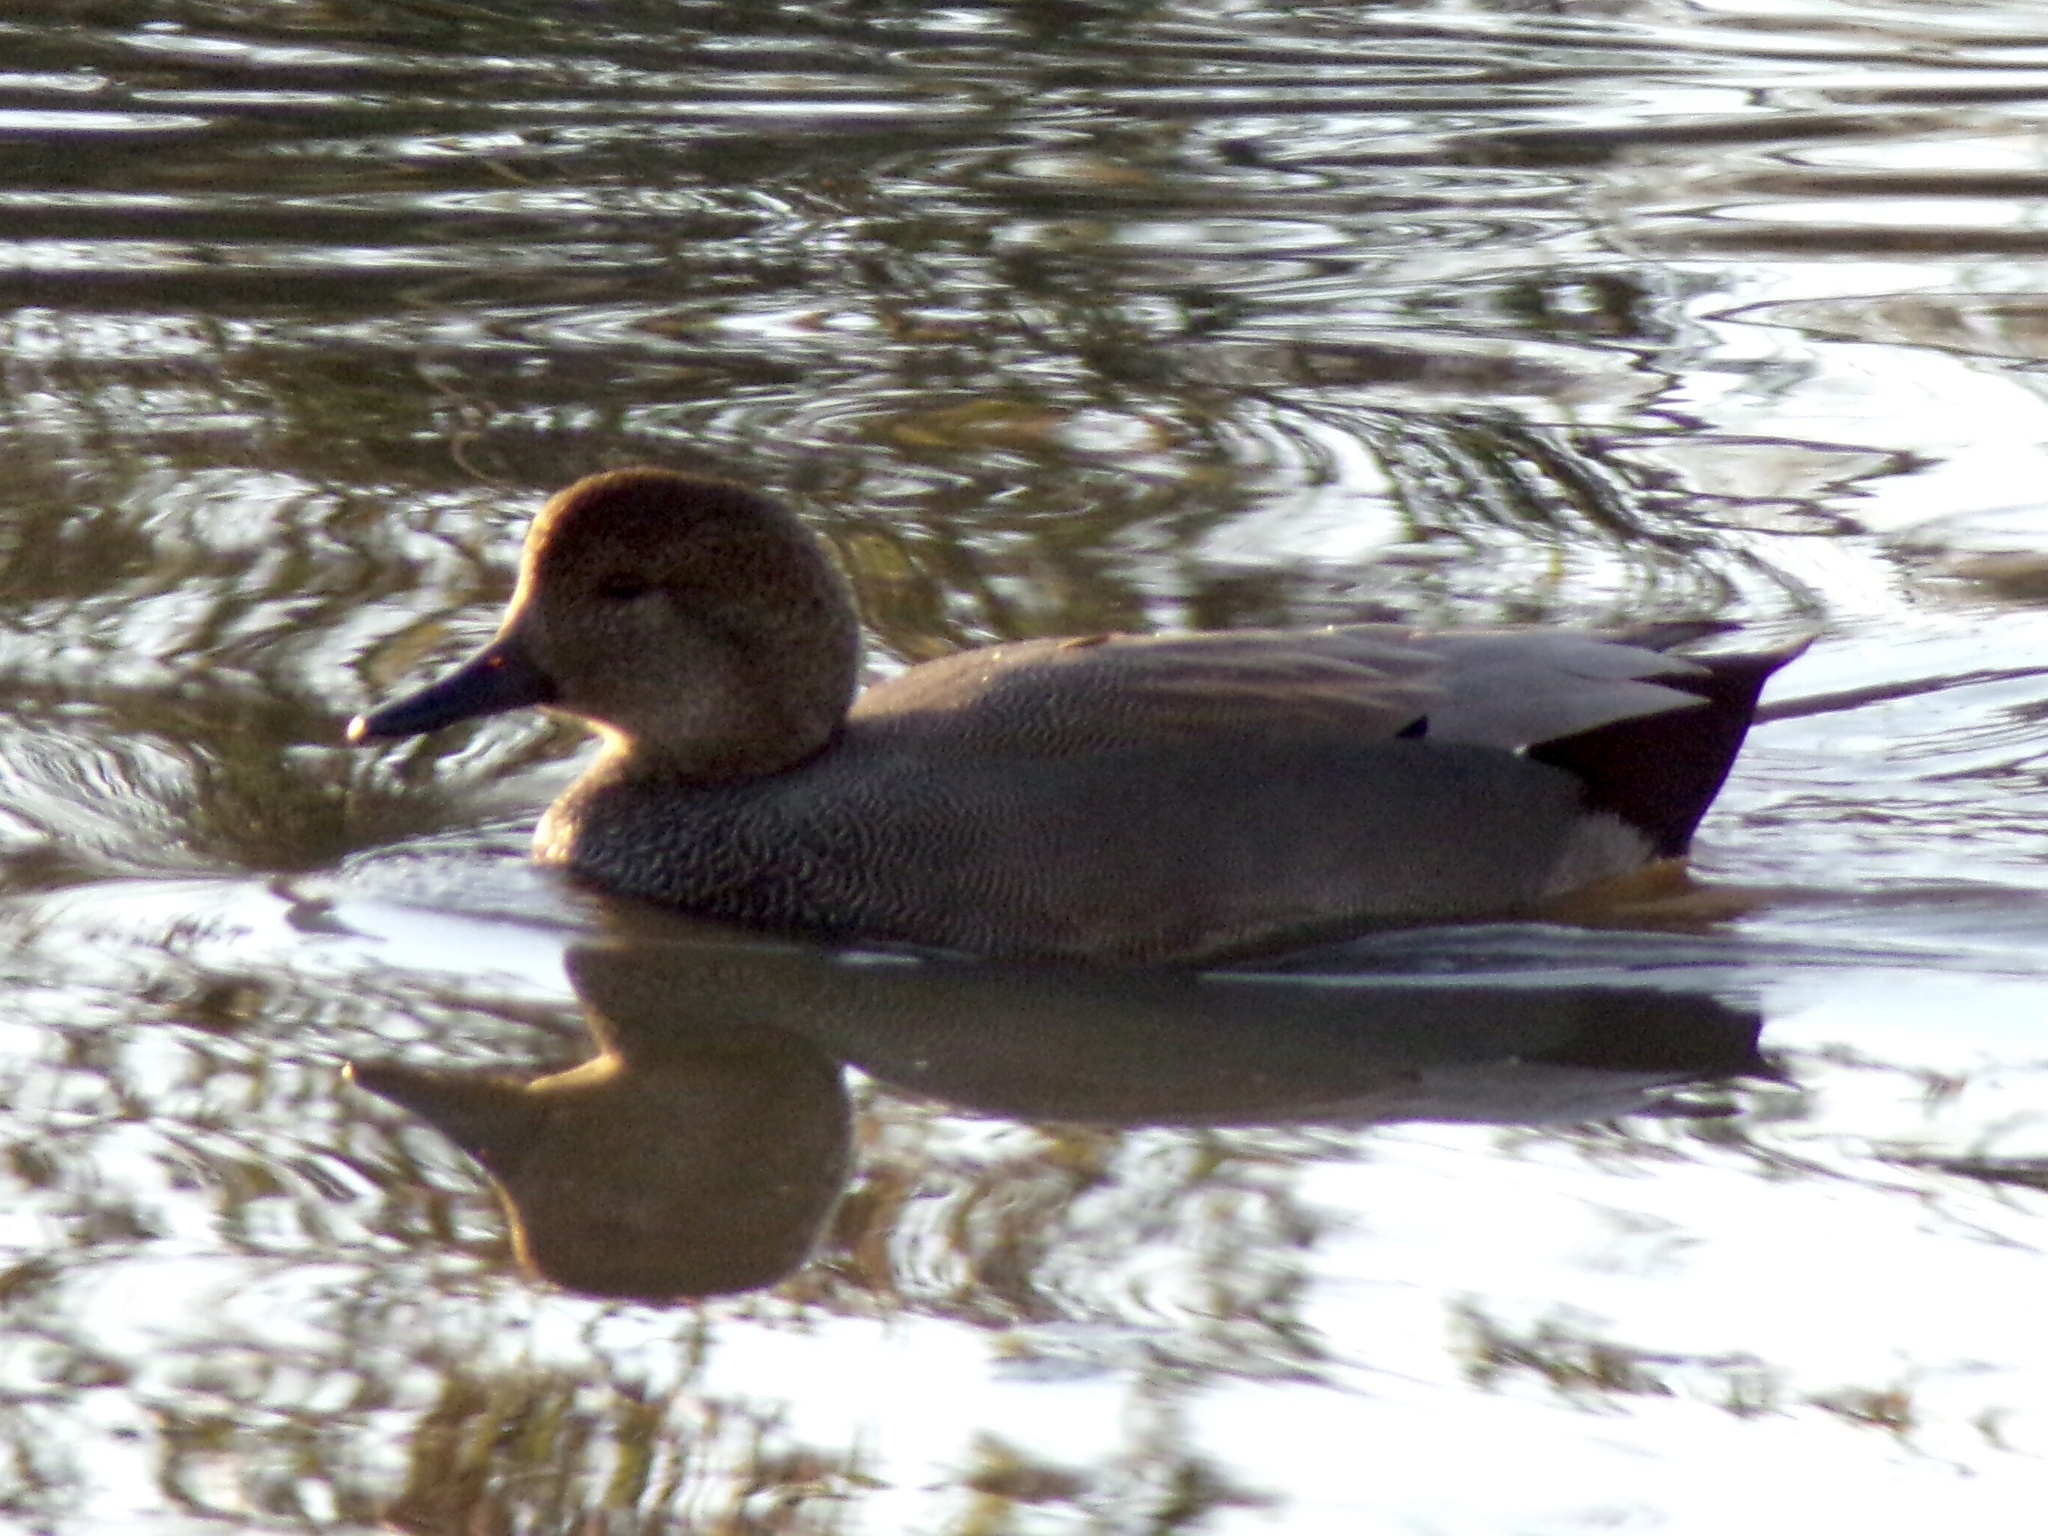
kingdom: Animalia
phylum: Chordata
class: Aves
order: Anseriformes
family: Anatidae
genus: Mareca
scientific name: Mareca strepera
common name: Gadwall
